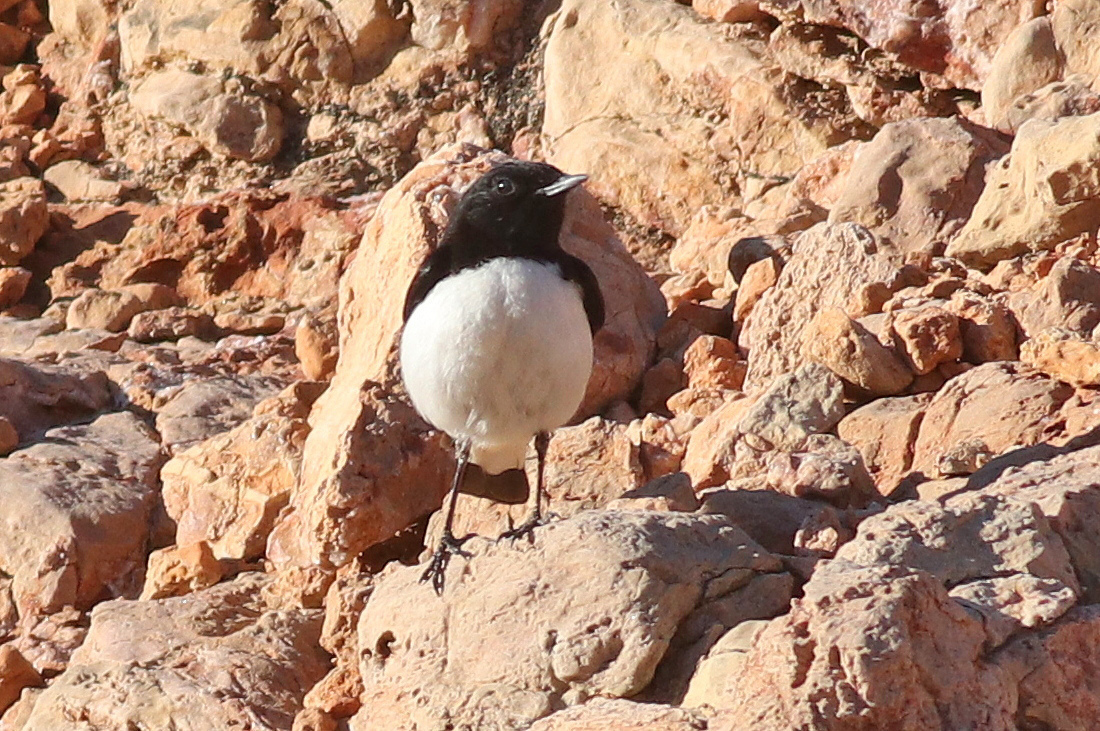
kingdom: Animalia
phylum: Chordata
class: Aves
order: Passeriformes
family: Muscicapidae
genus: Oenanthe
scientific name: Oenanthe albonigra
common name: Hume's wheatear
